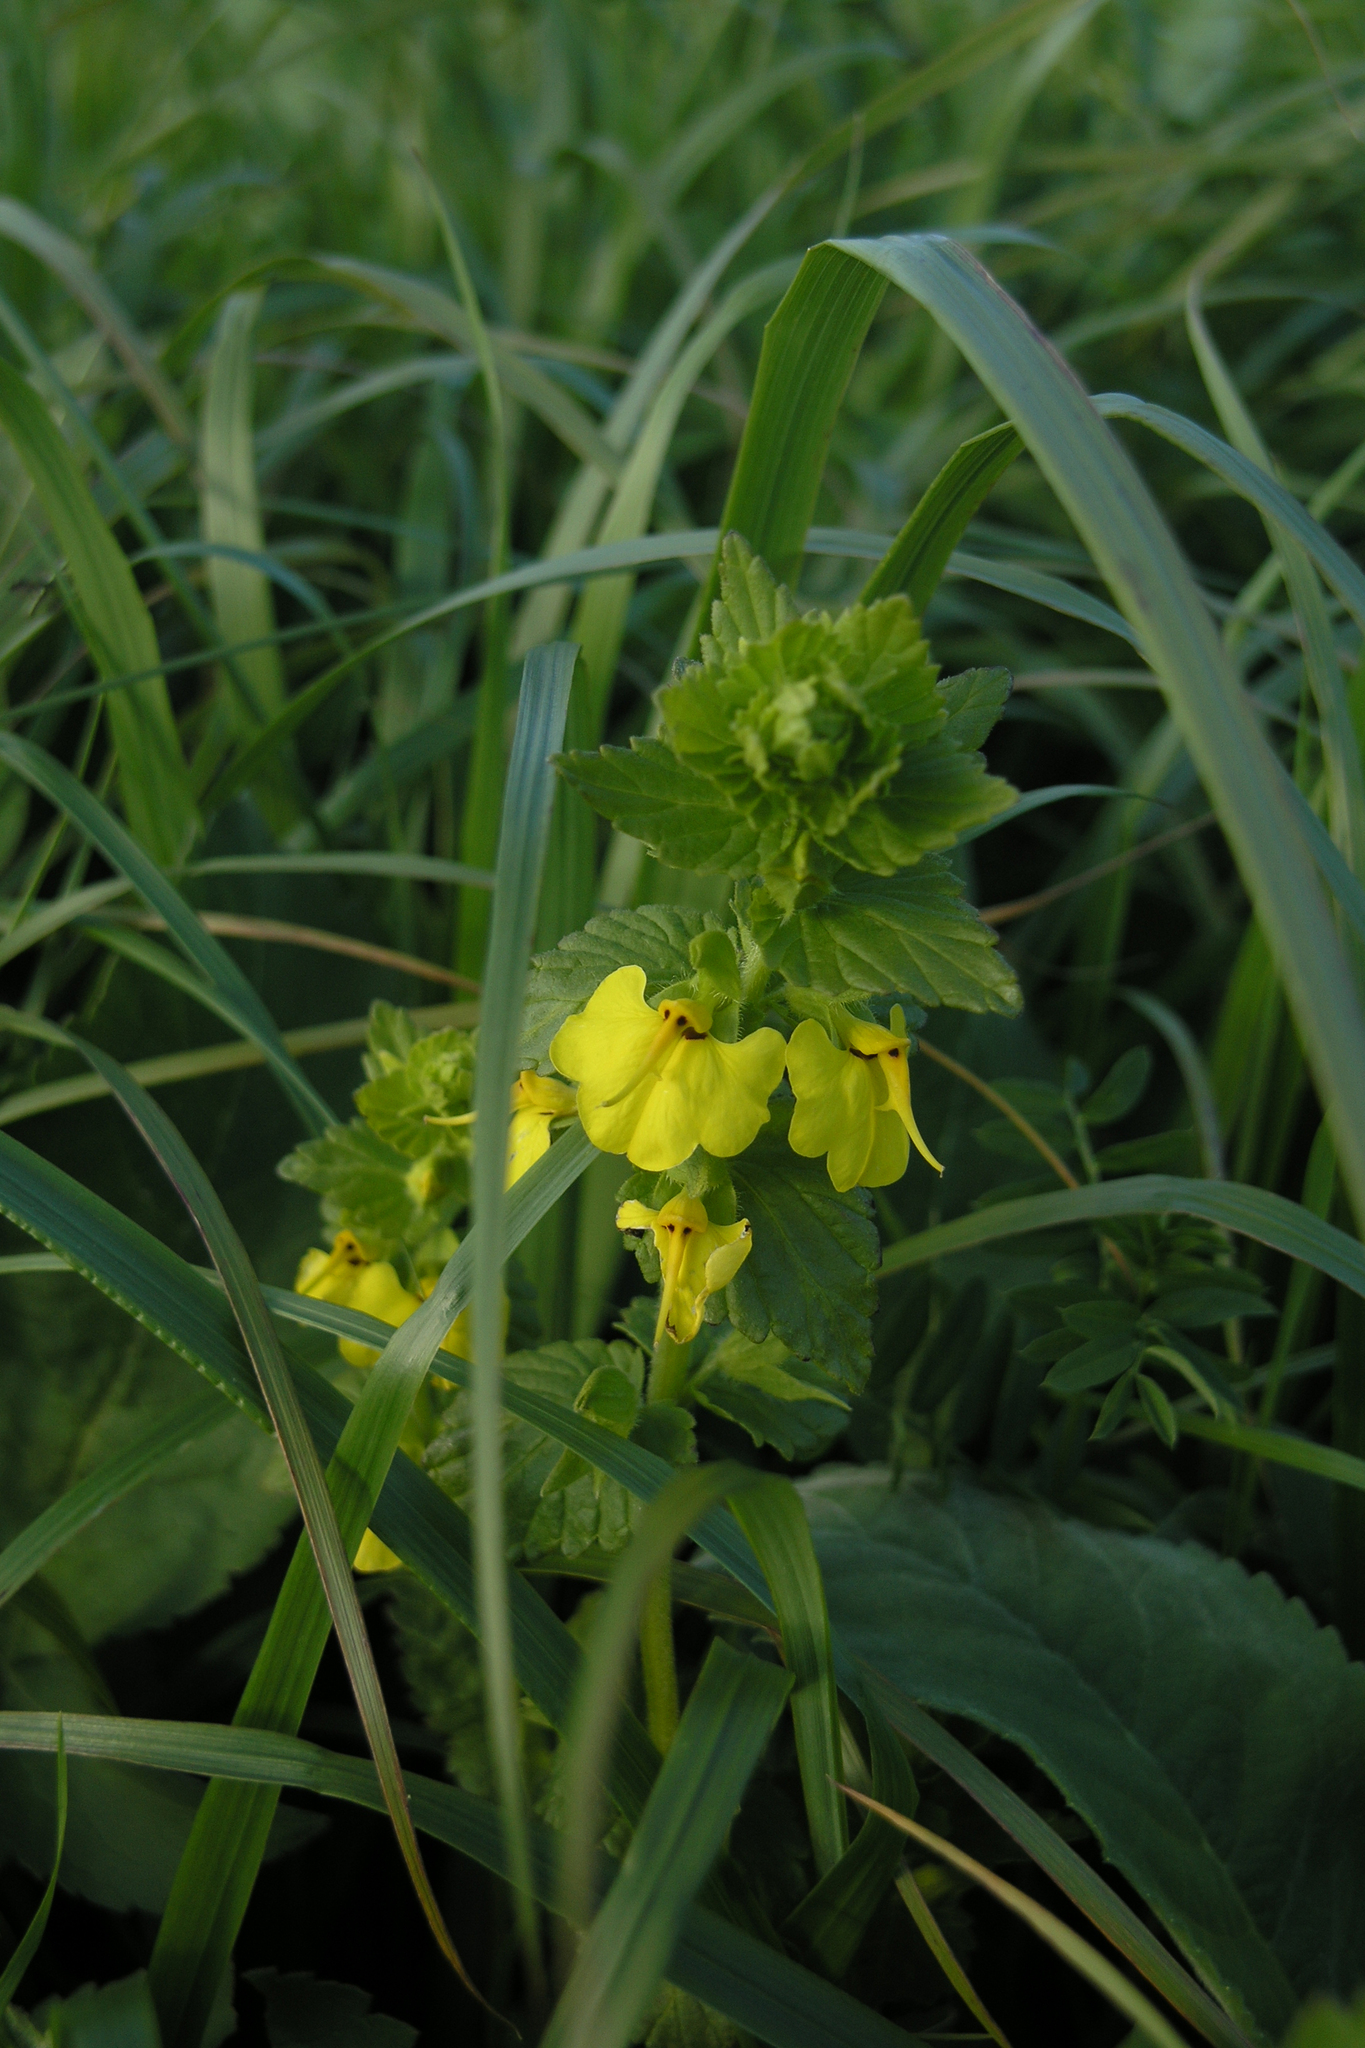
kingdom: Plantae
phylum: Tracheophyta
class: Magnoliopsida
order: Lamiales
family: Orobanchaceae
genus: Rhynchocorys
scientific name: Rhynchocorys elephas
